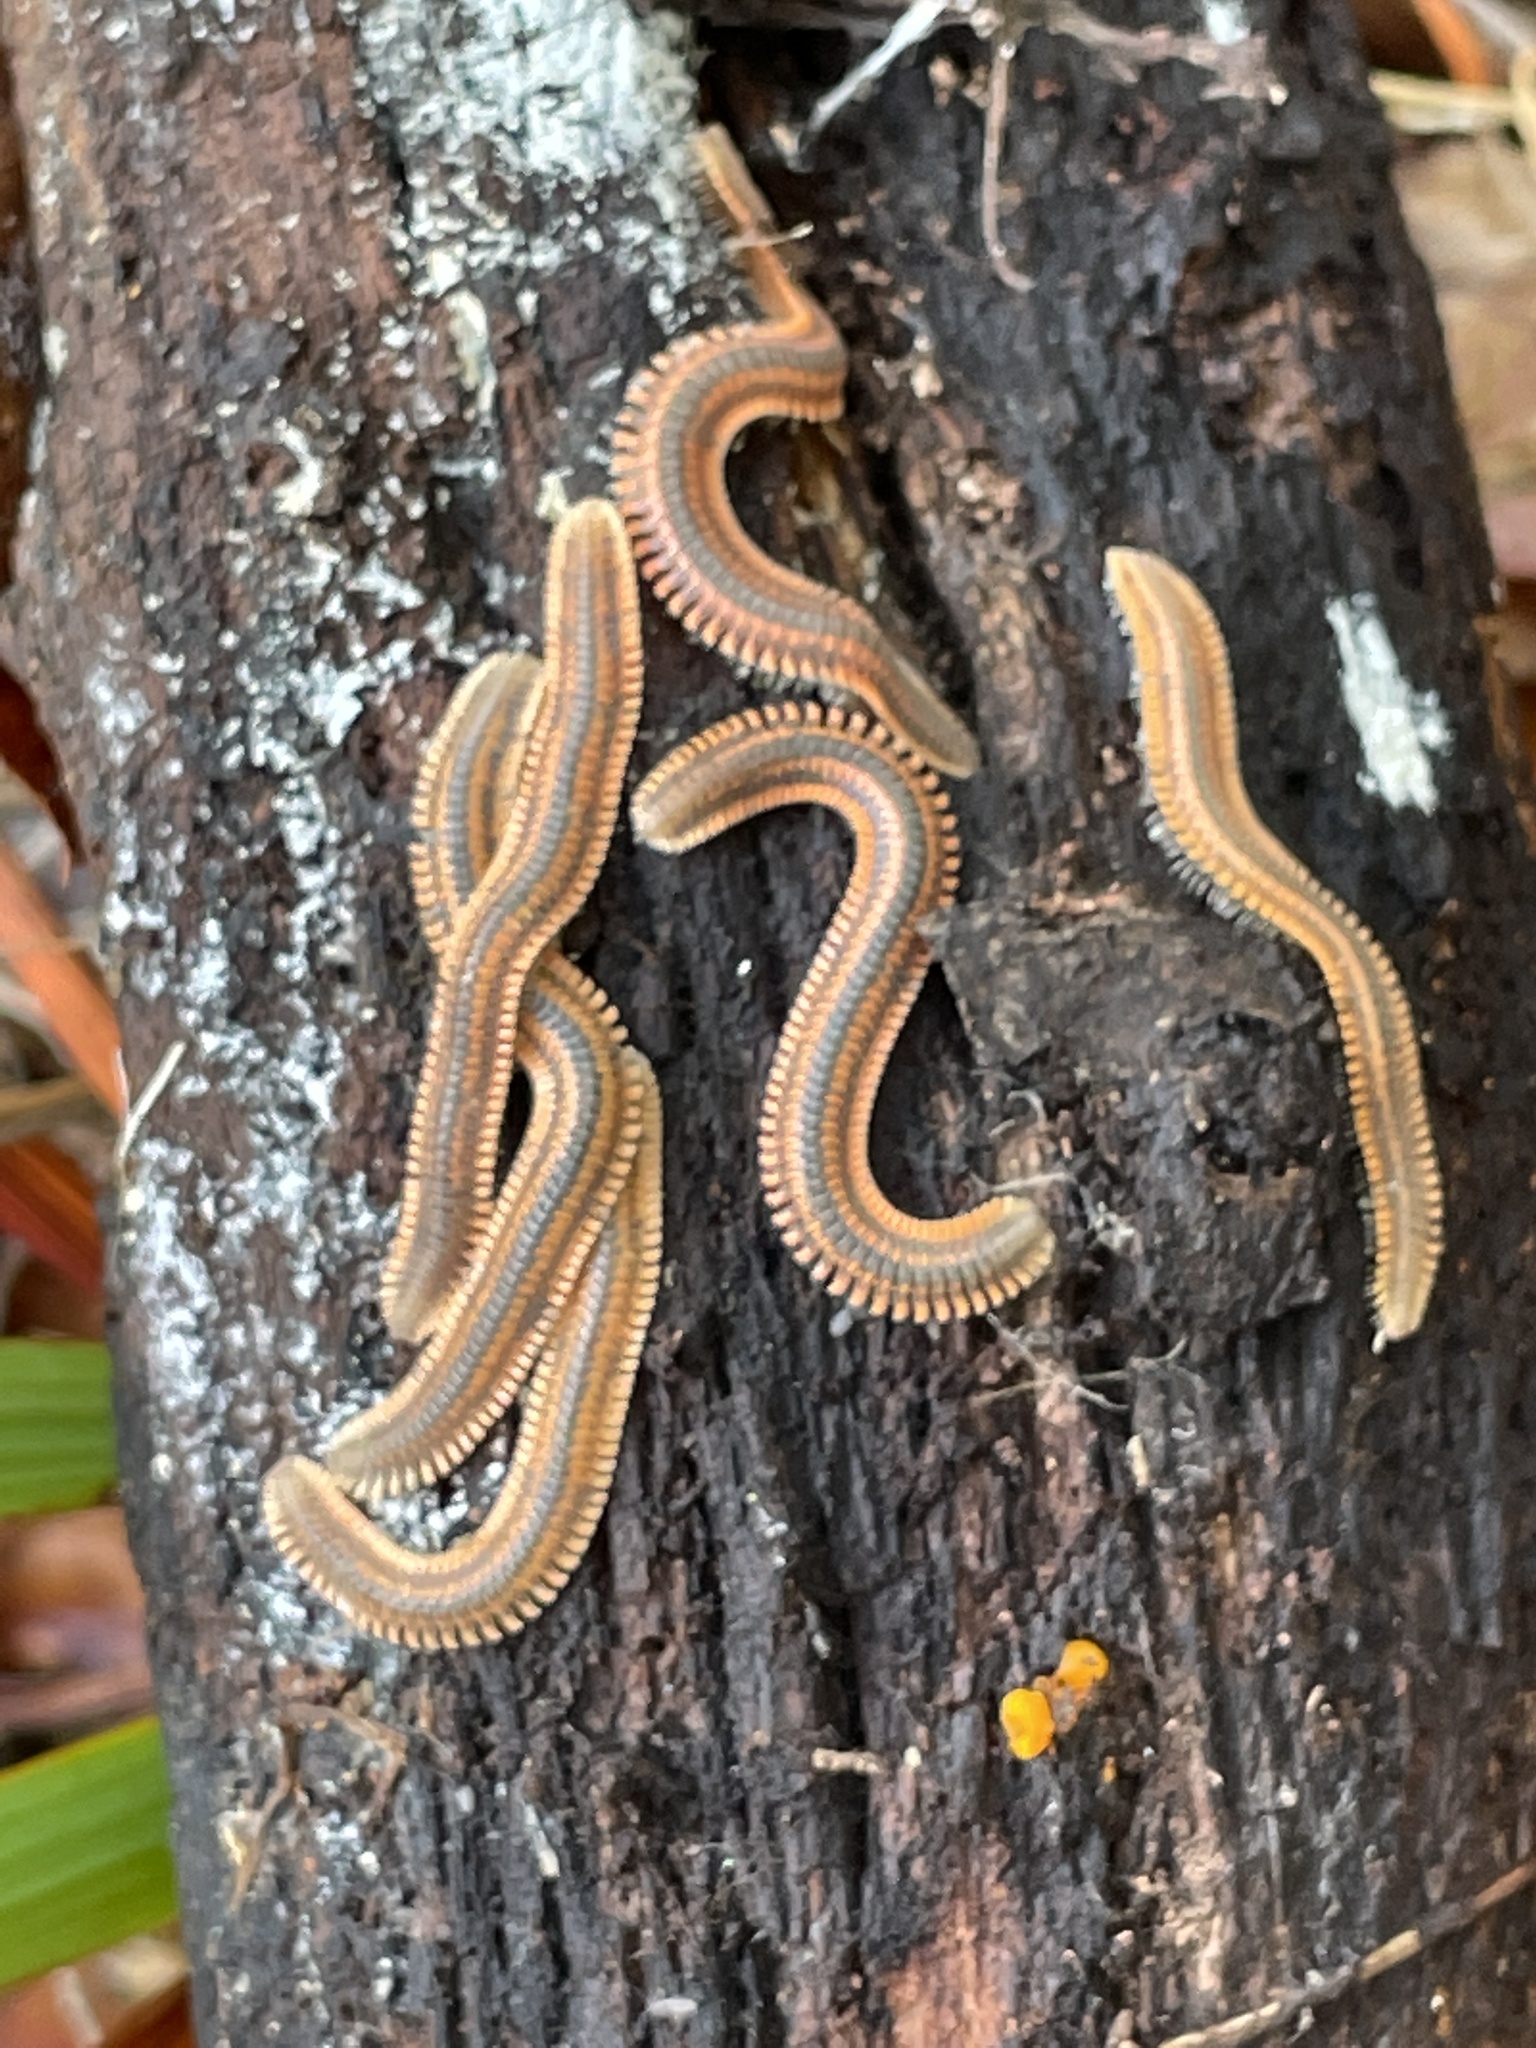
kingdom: Animalia
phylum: Arthropoda
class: Diplopoda
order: Platydesmida
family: Andrognathidae
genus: Brachycybe
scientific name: Brachycybe producta
